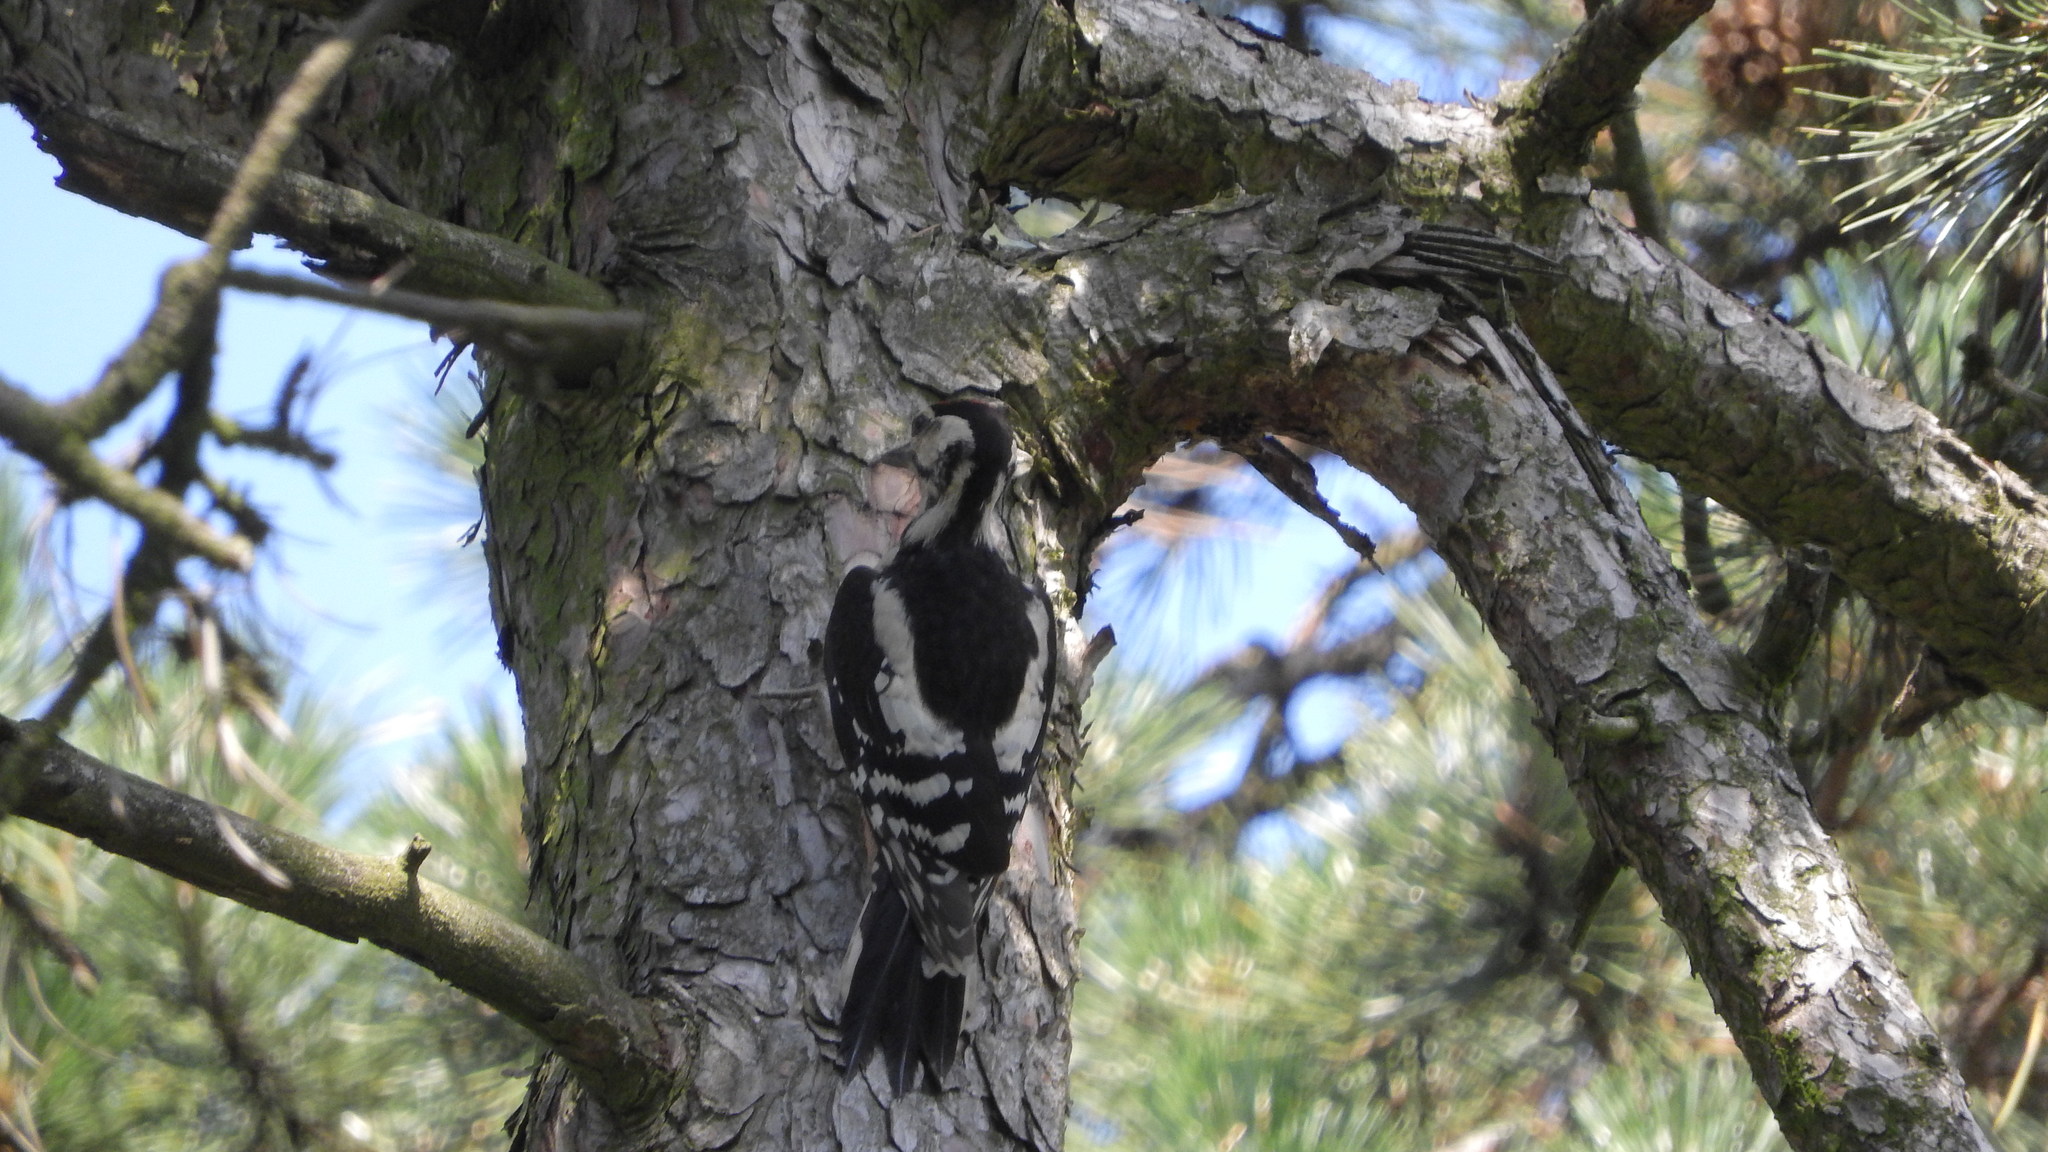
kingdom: Animalia
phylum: Chordata
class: Aves
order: Piciformes
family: Picidae
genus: Dendrocopos
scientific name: Dendrocopos major
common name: Great spotted woodpecker
